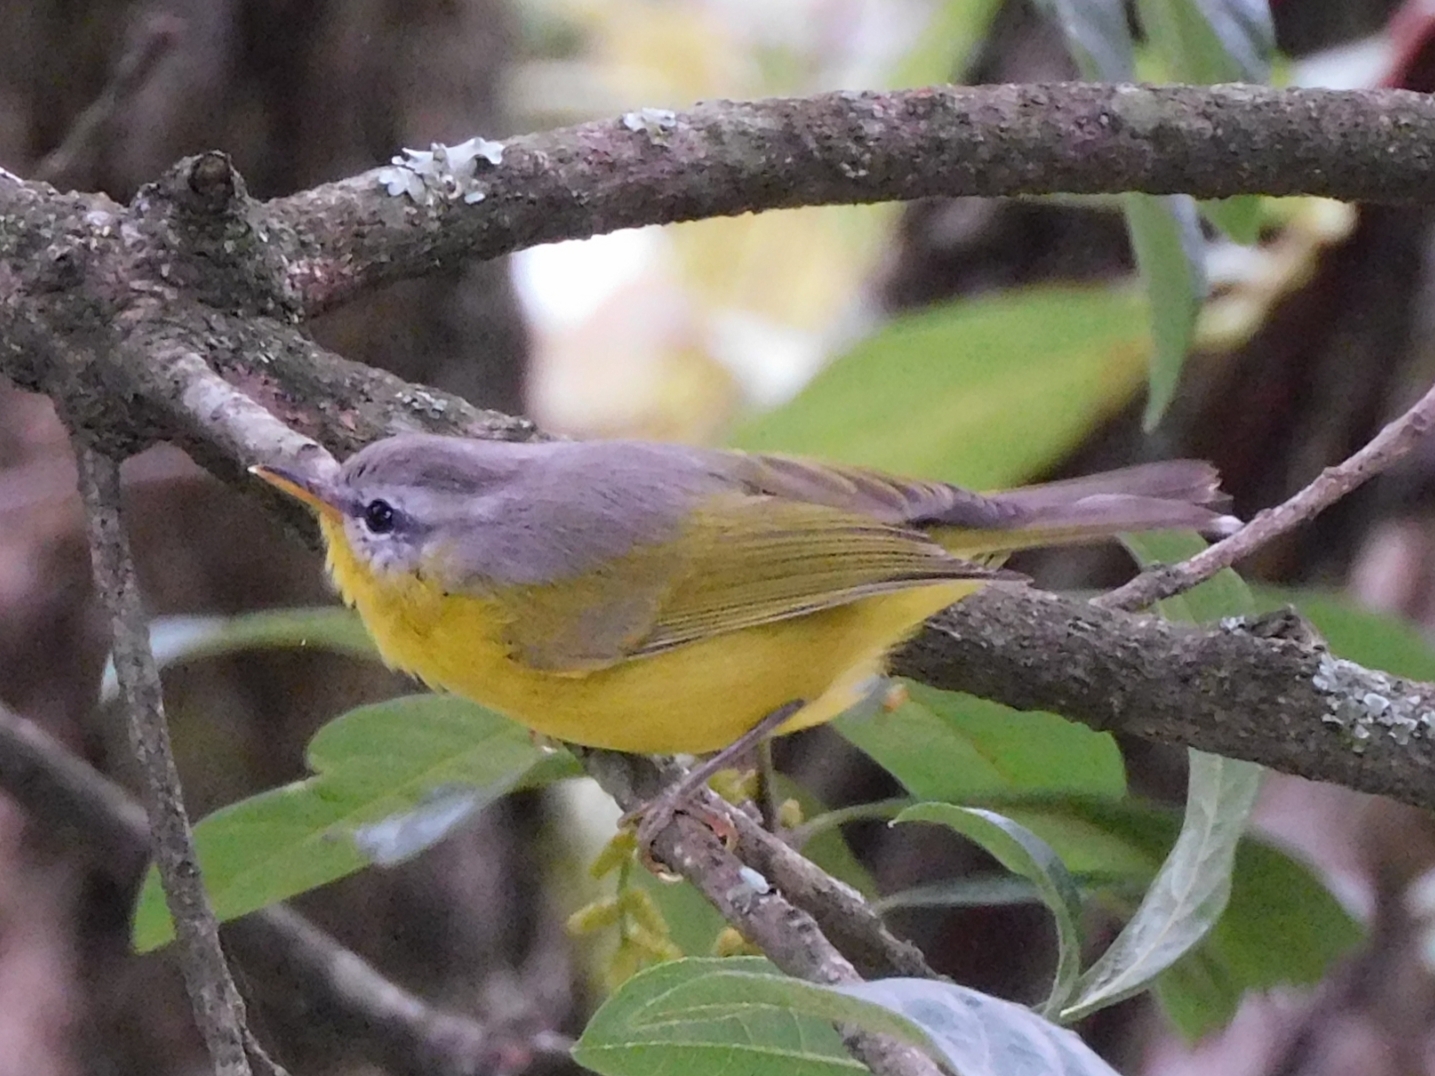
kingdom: Animalia
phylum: Chordata
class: Aves
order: Passeriformes
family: Phylloscopidae
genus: Phylloscopus
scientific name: Phylloscopus xanthoschistos
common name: Grey-hooded warbler
